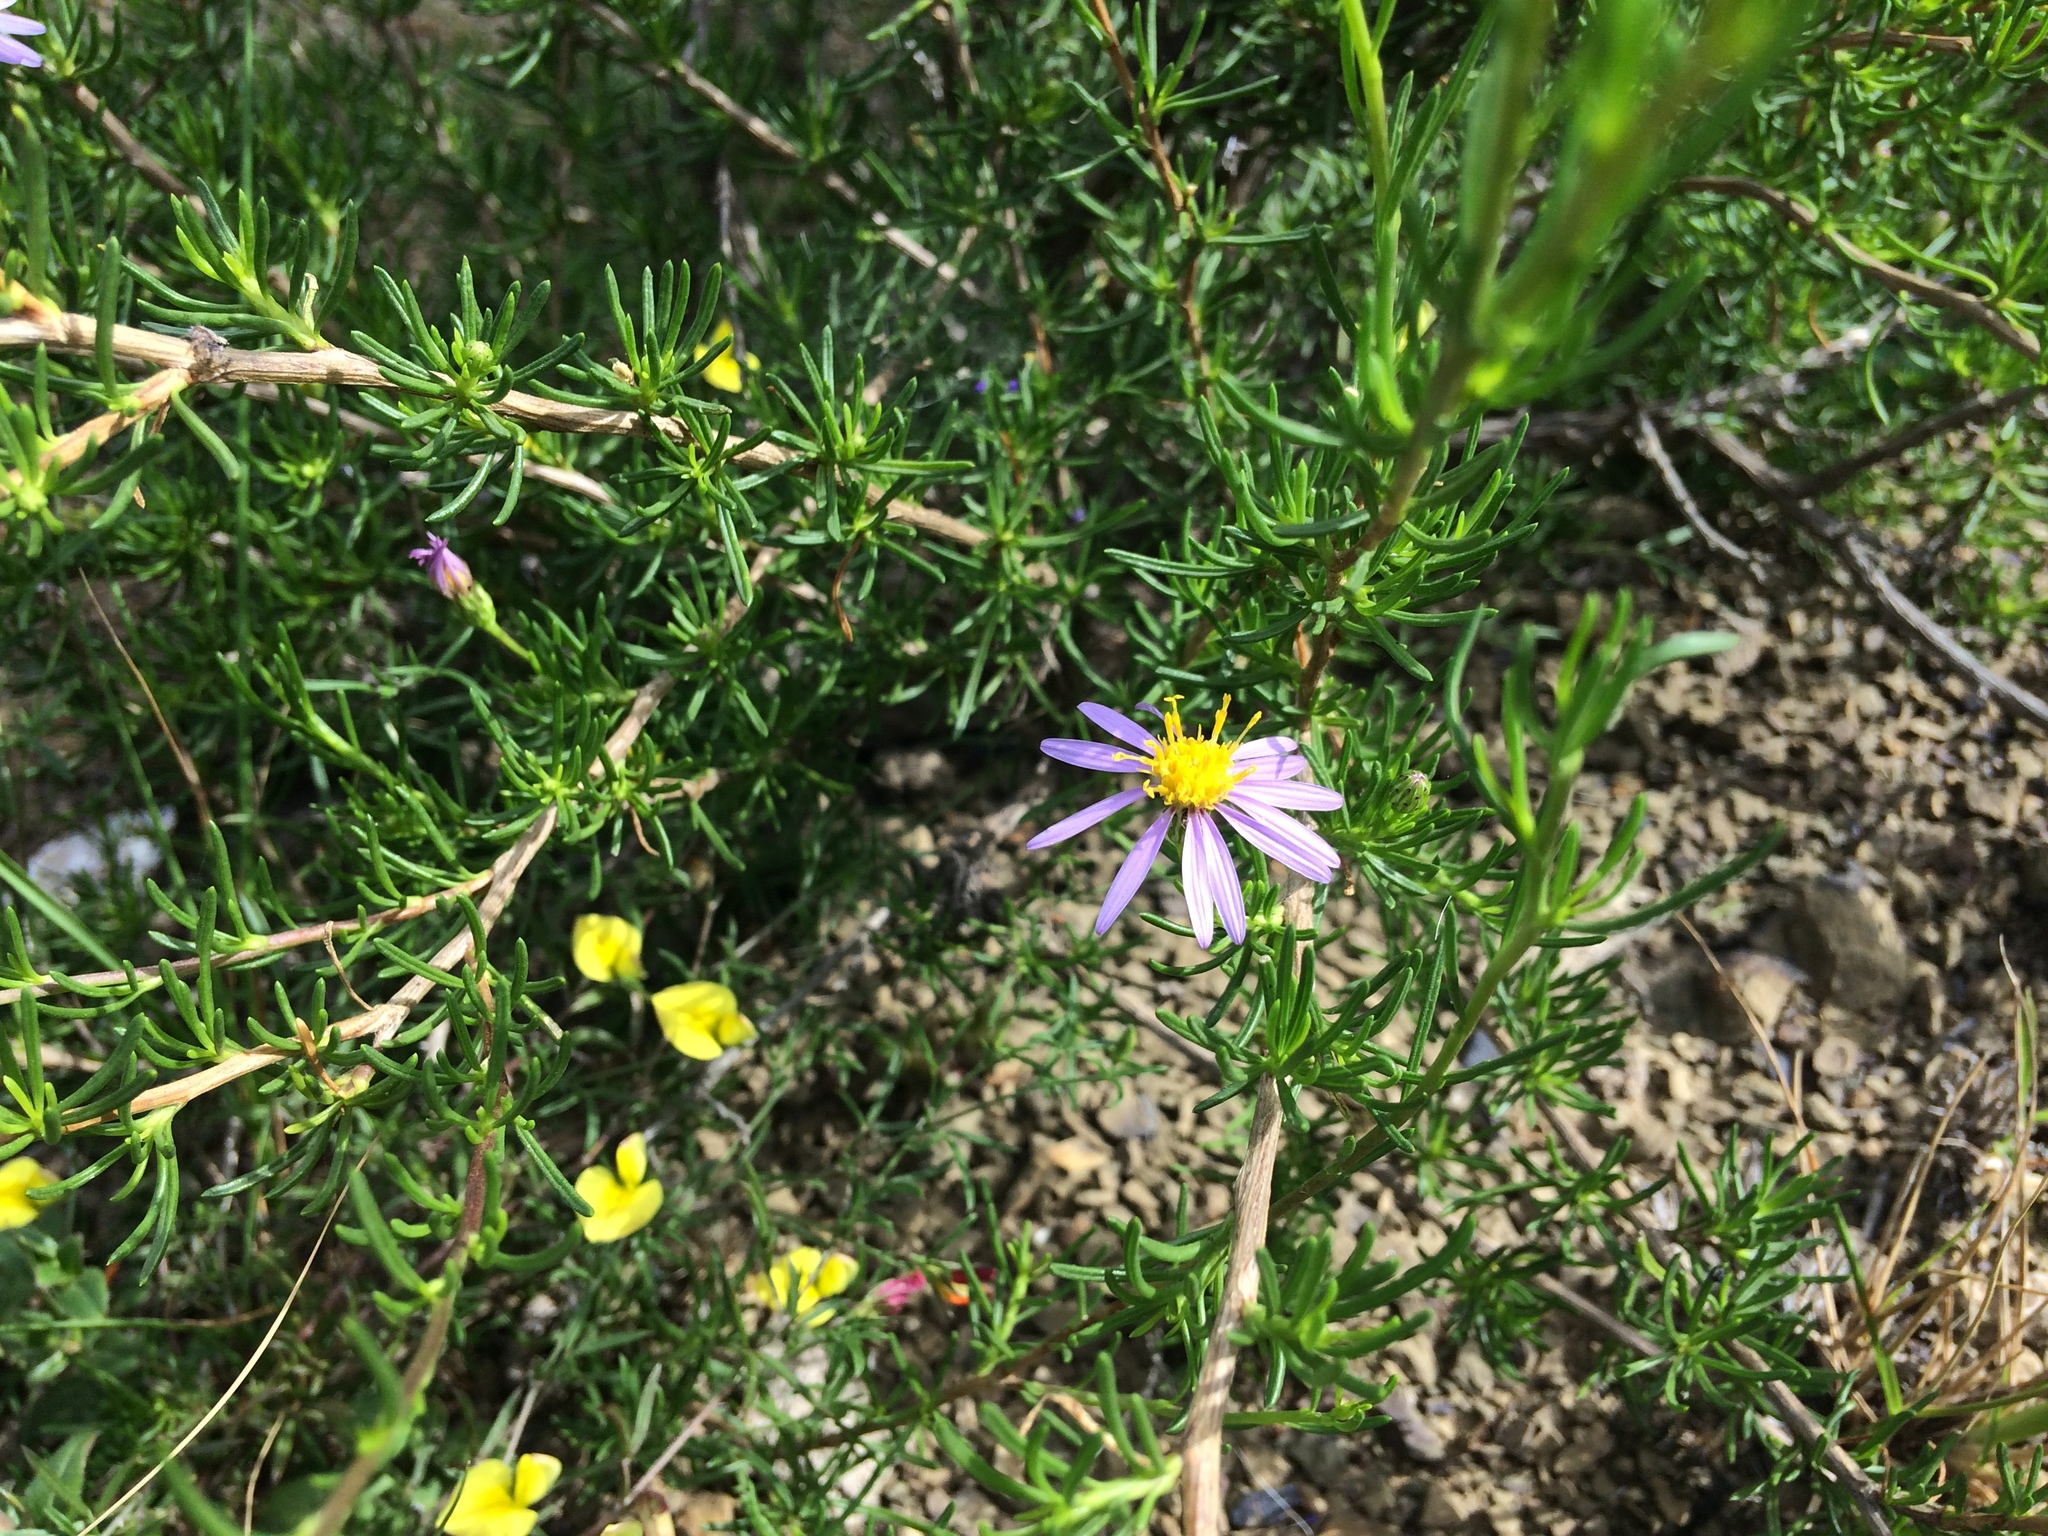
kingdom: Plantae
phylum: Tracheophyta
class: Magnoliopsida
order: Asterales
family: Asteraceae
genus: Felicia
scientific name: Felicia filifolia
